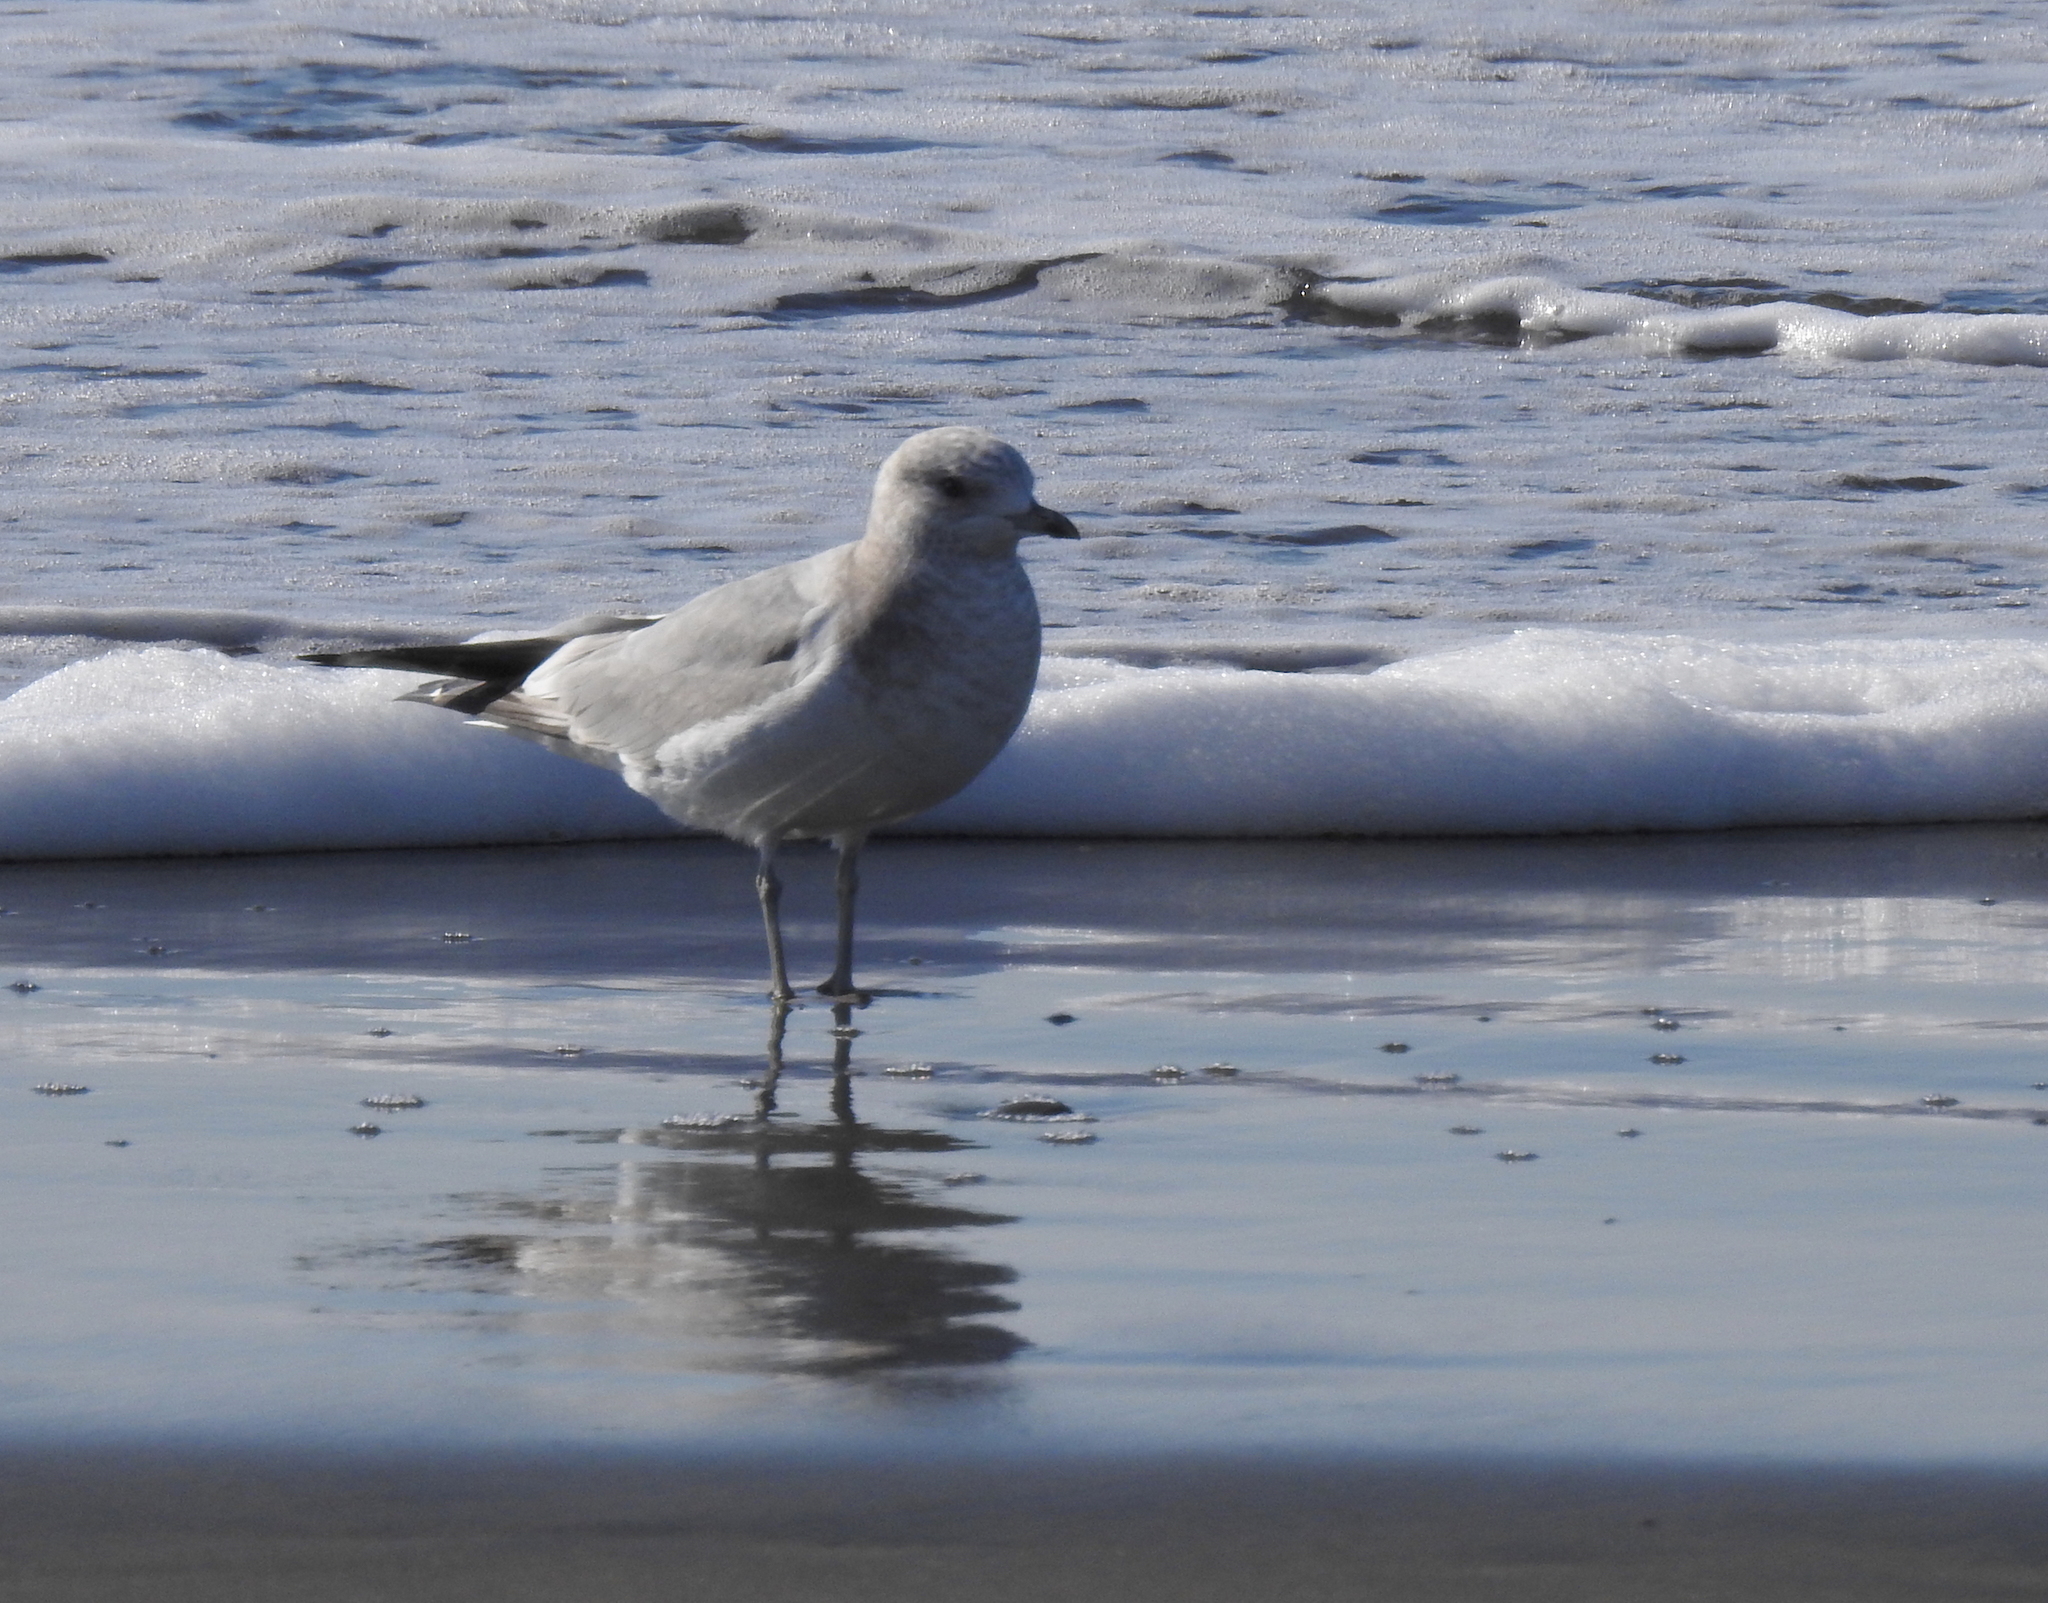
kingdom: Animalia
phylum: Chordata
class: Aves
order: Charadriiformes
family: Laridae
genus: Larus
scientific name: Larus brachyrhynchus
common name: Short-billed gull
